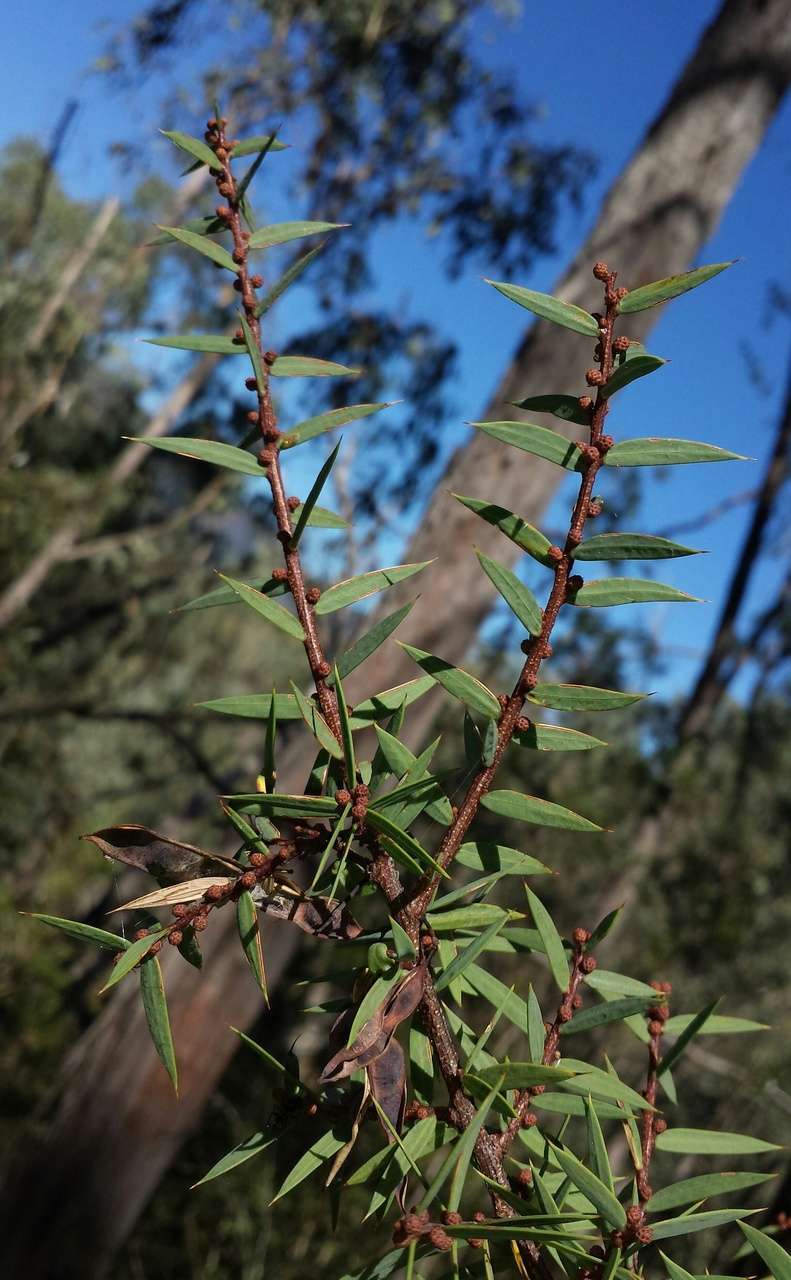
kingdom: Plantae
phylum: Tracheophyta
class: Magnoliopsida
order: Fabales
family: Fabaceae
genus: Acacia
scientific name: Acacia siculiformis
